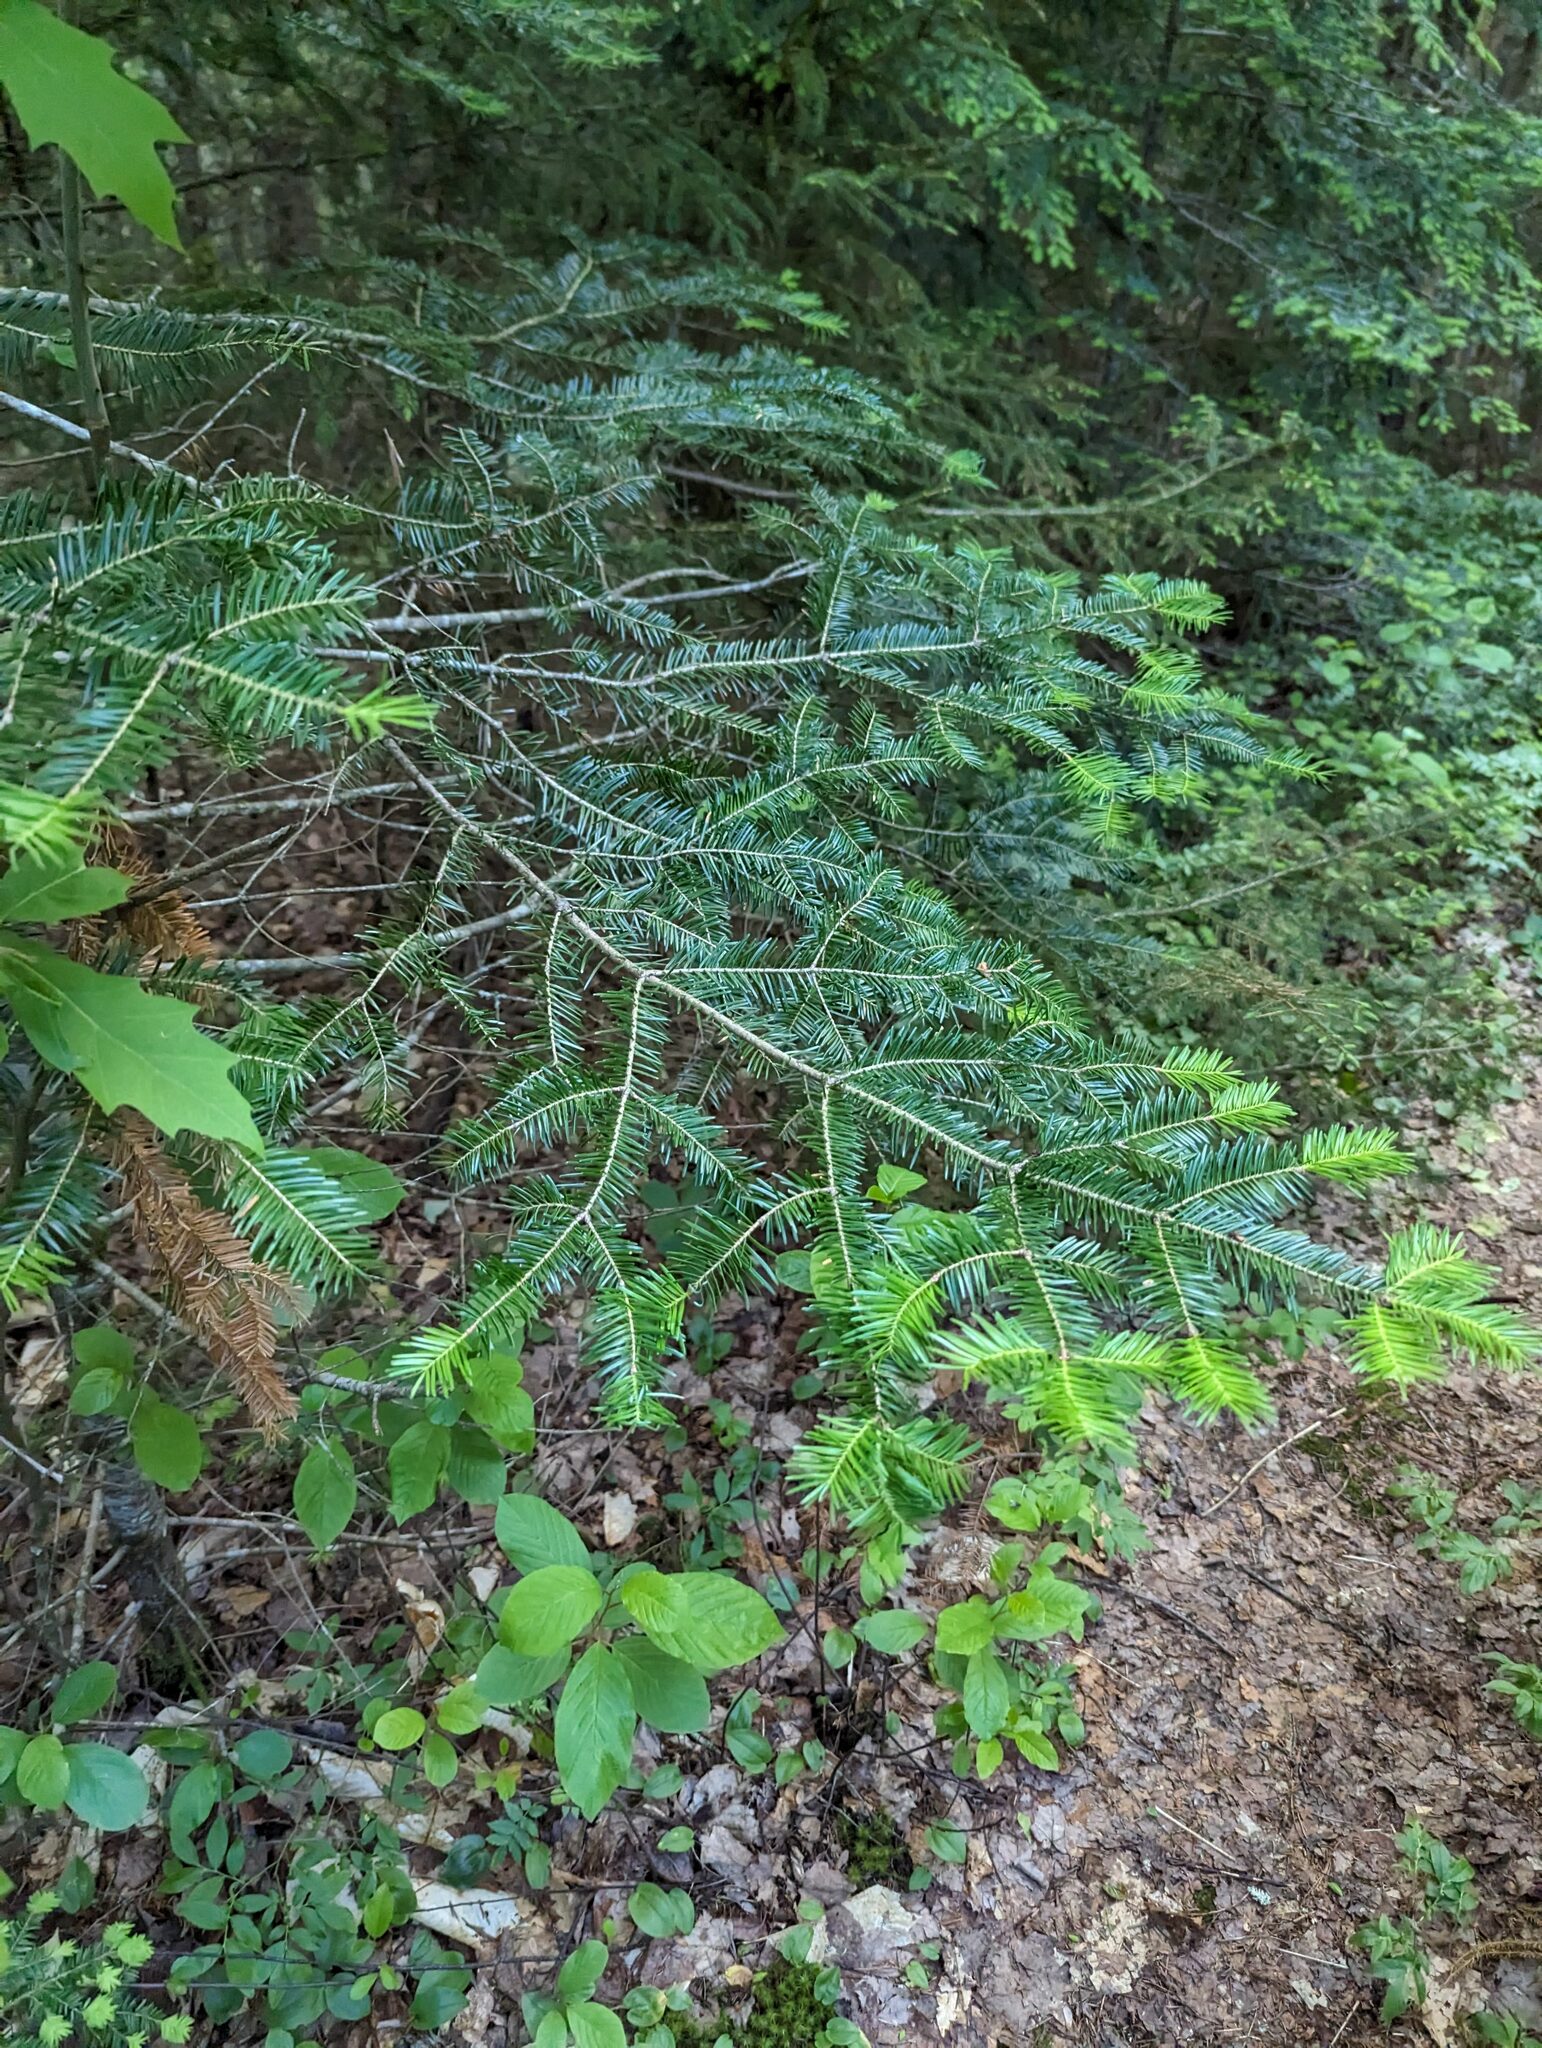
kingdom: Plantae
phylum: Tracheophyta
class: Pinopsida
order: Pinales
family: Pinaceae
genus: Abies
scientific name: Abies balsamea
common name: Balsam fir
